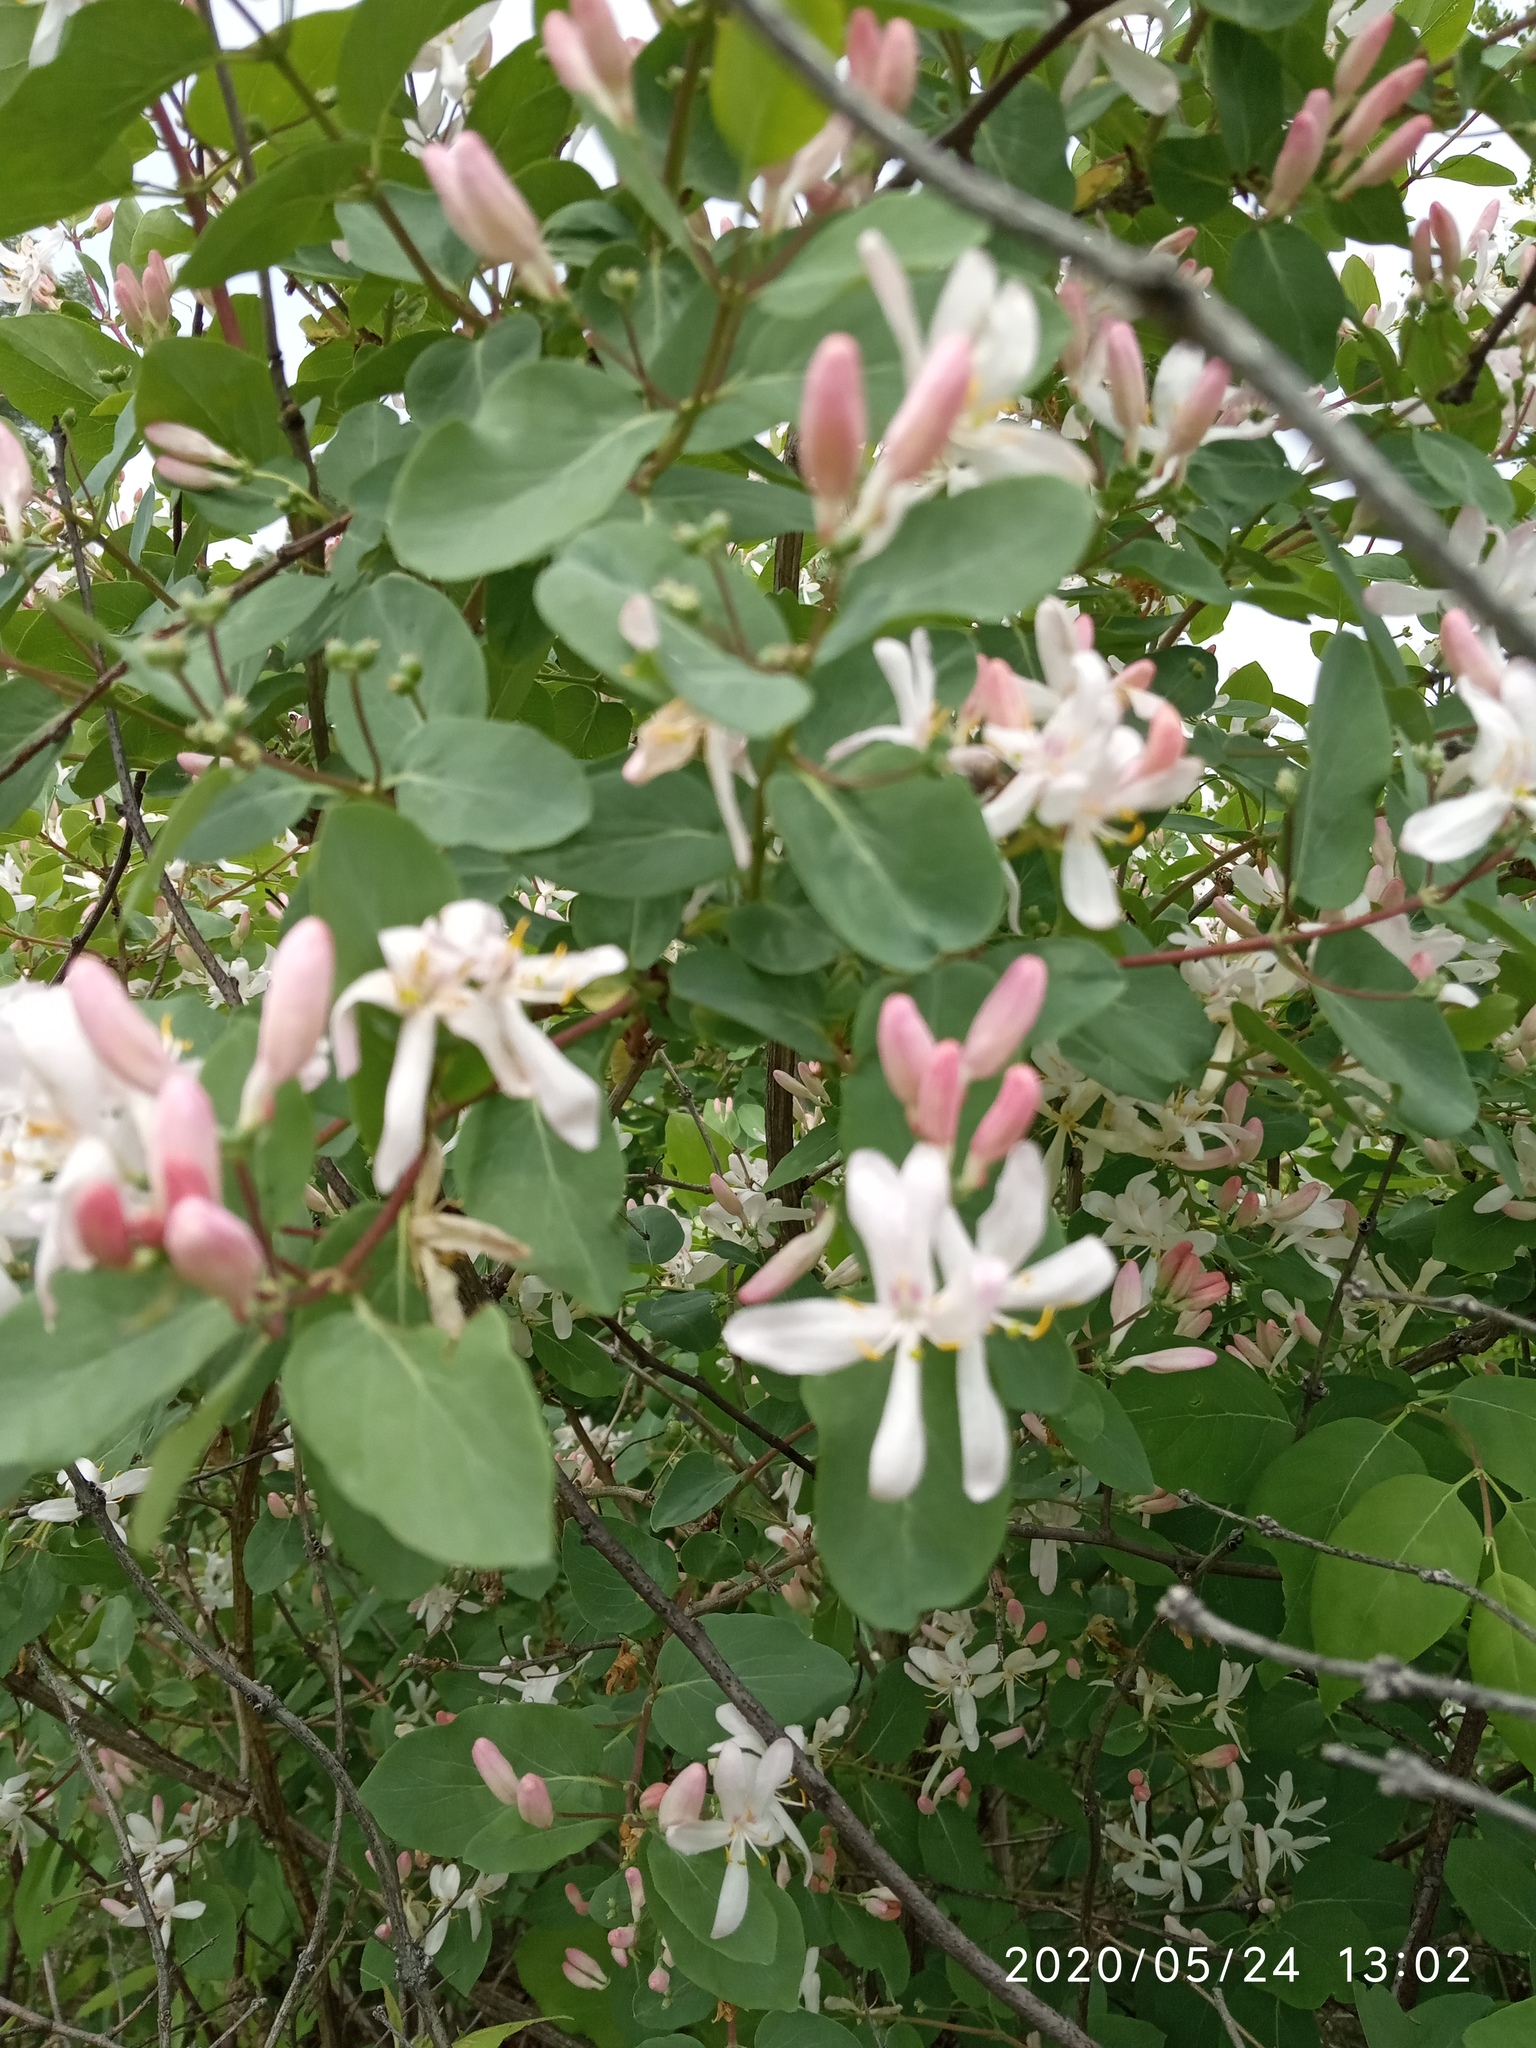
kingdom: Plantae
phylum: Tracheophyta
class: Magnoliopsida
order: Dipsacales
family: Caprifoliaceae
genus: Lonicera
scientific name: Lonicera tatarica
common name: Tatarian honeysuckle
